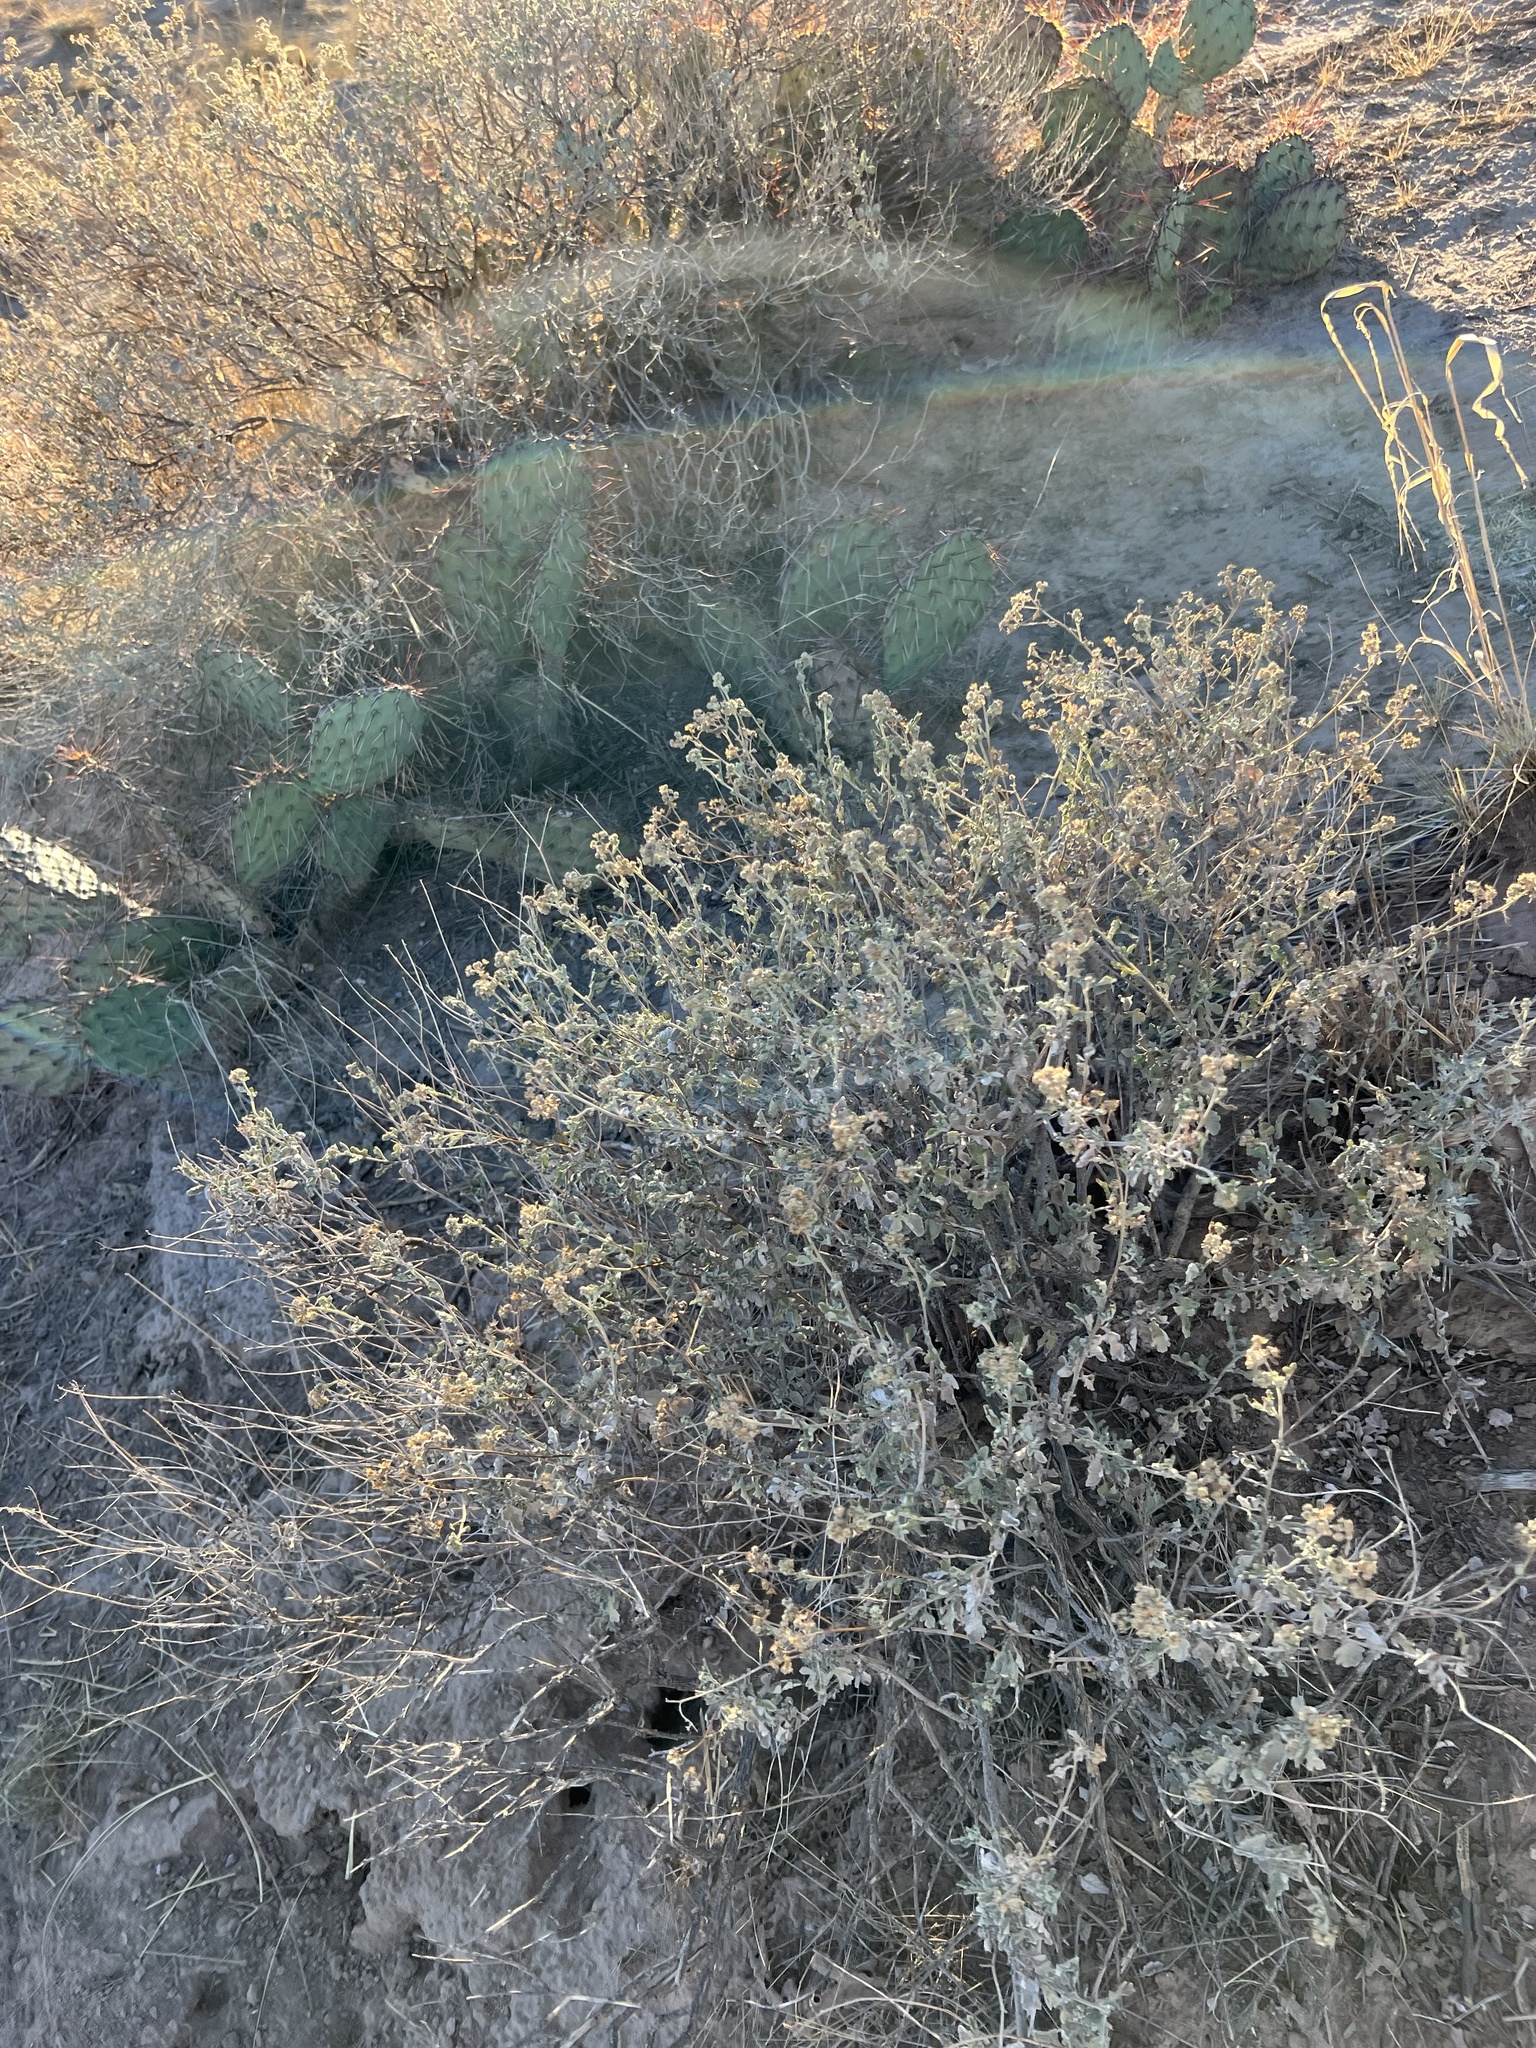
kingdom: Plantae
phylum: Tracheophyta
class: Magnoliopsida
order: Asterales
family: Asteraceae
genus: Parthenium
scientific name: Parthenium incanum
